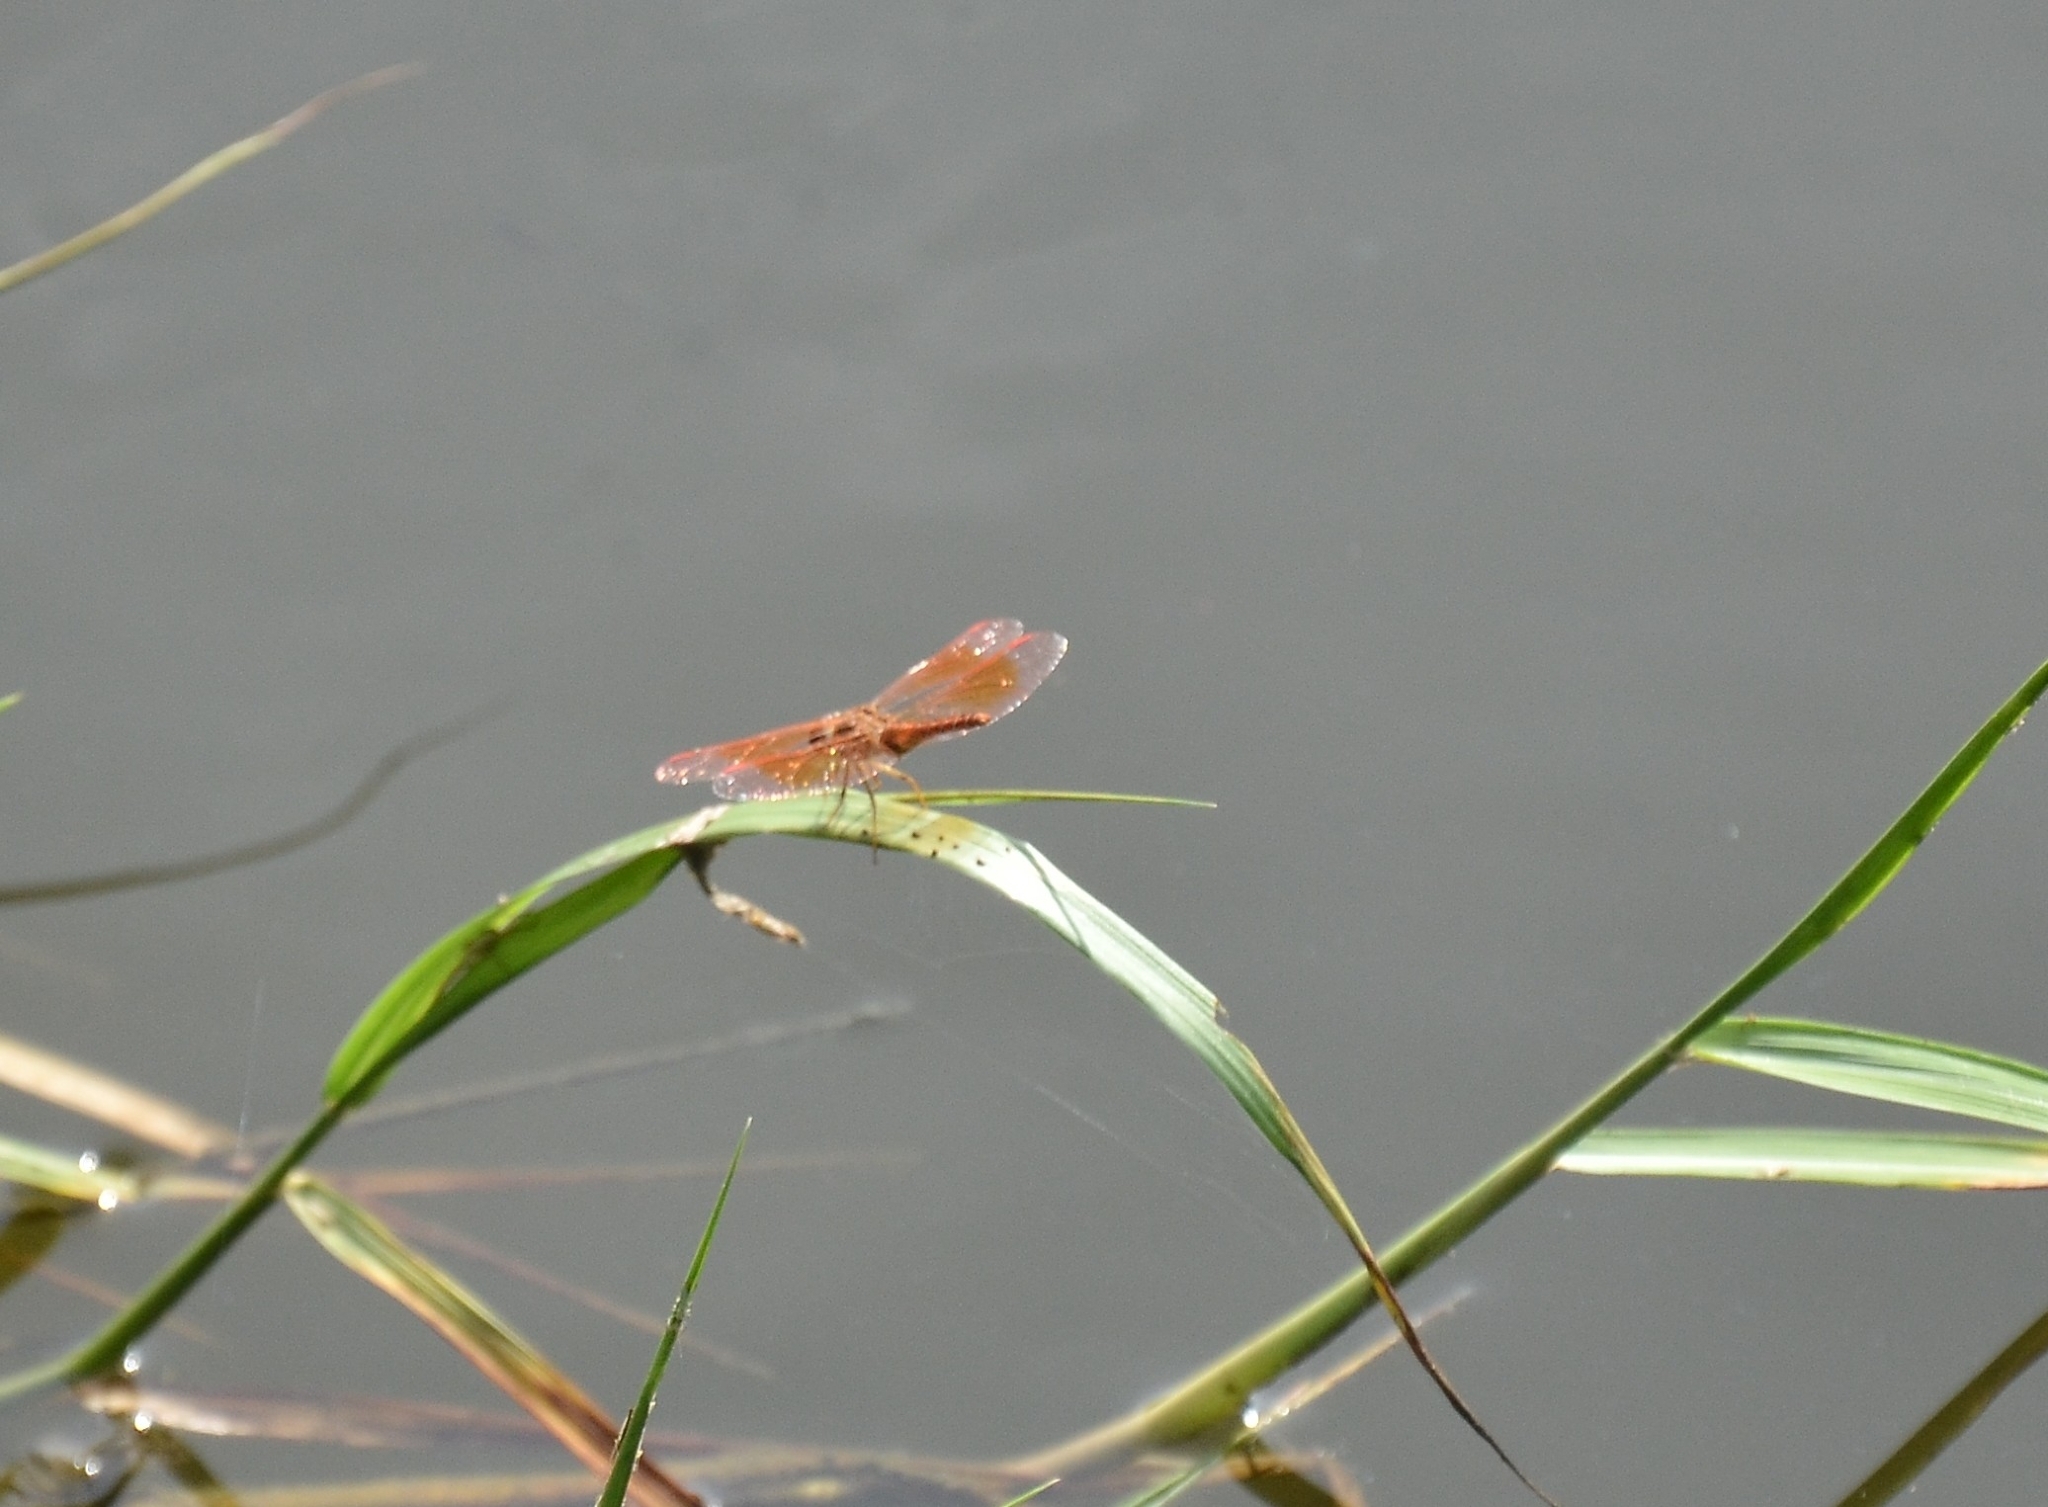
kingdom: Animalia
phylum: Arthropoda
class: Insecta
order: Odonata
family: Libellulidae
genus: Brachythemis
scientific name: Brachythemis contaminata
